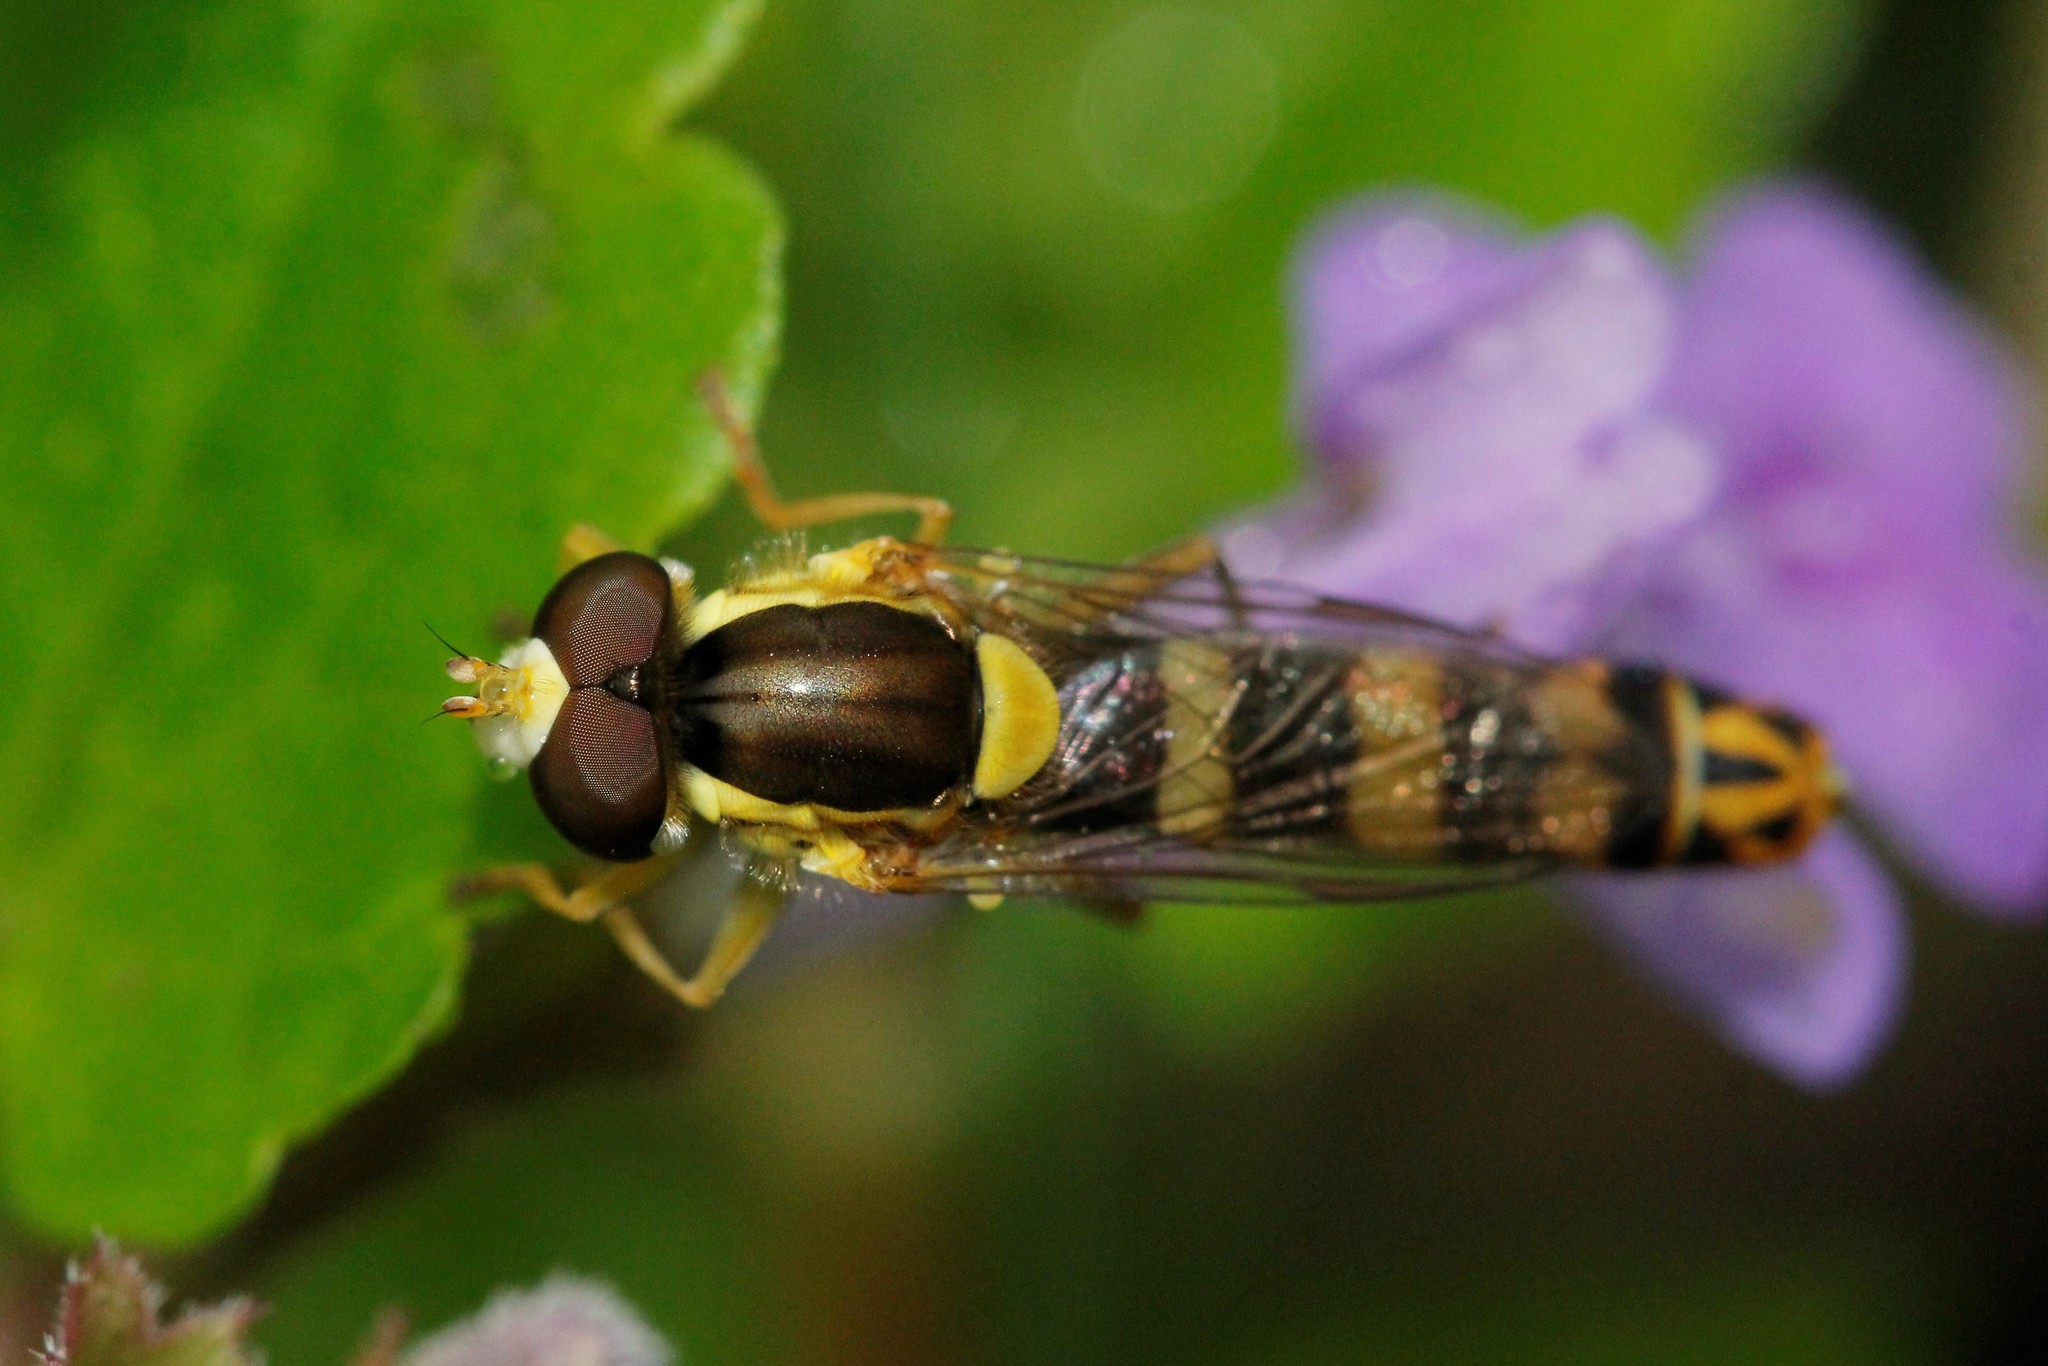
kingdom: Animalia
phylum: Arthropoda
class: Insecta
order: Diptera
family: Syrphidae
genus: Sphaerophoria
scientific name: Sphaerophoria scripta
